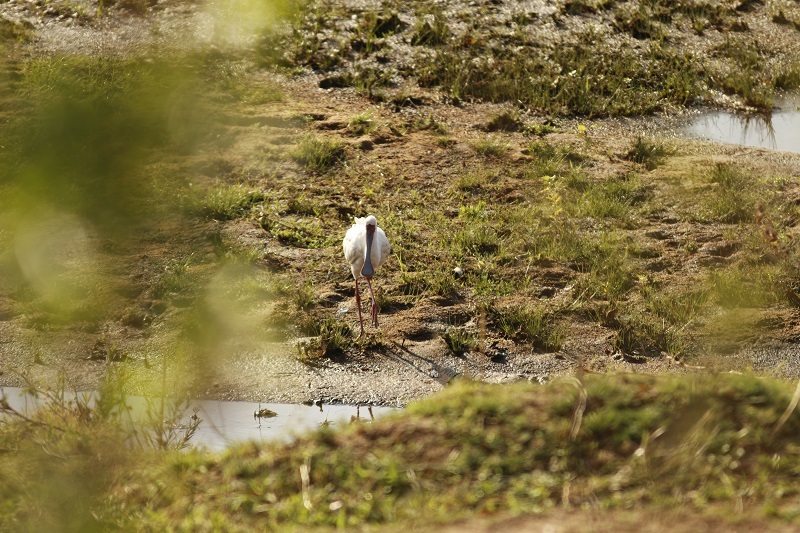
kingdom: Animalia
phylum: Chordata
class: Aves
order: Pelecaniformes
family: Threskiornithidae
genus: Platalea
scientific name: Platalea alba
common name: African spoonbill
